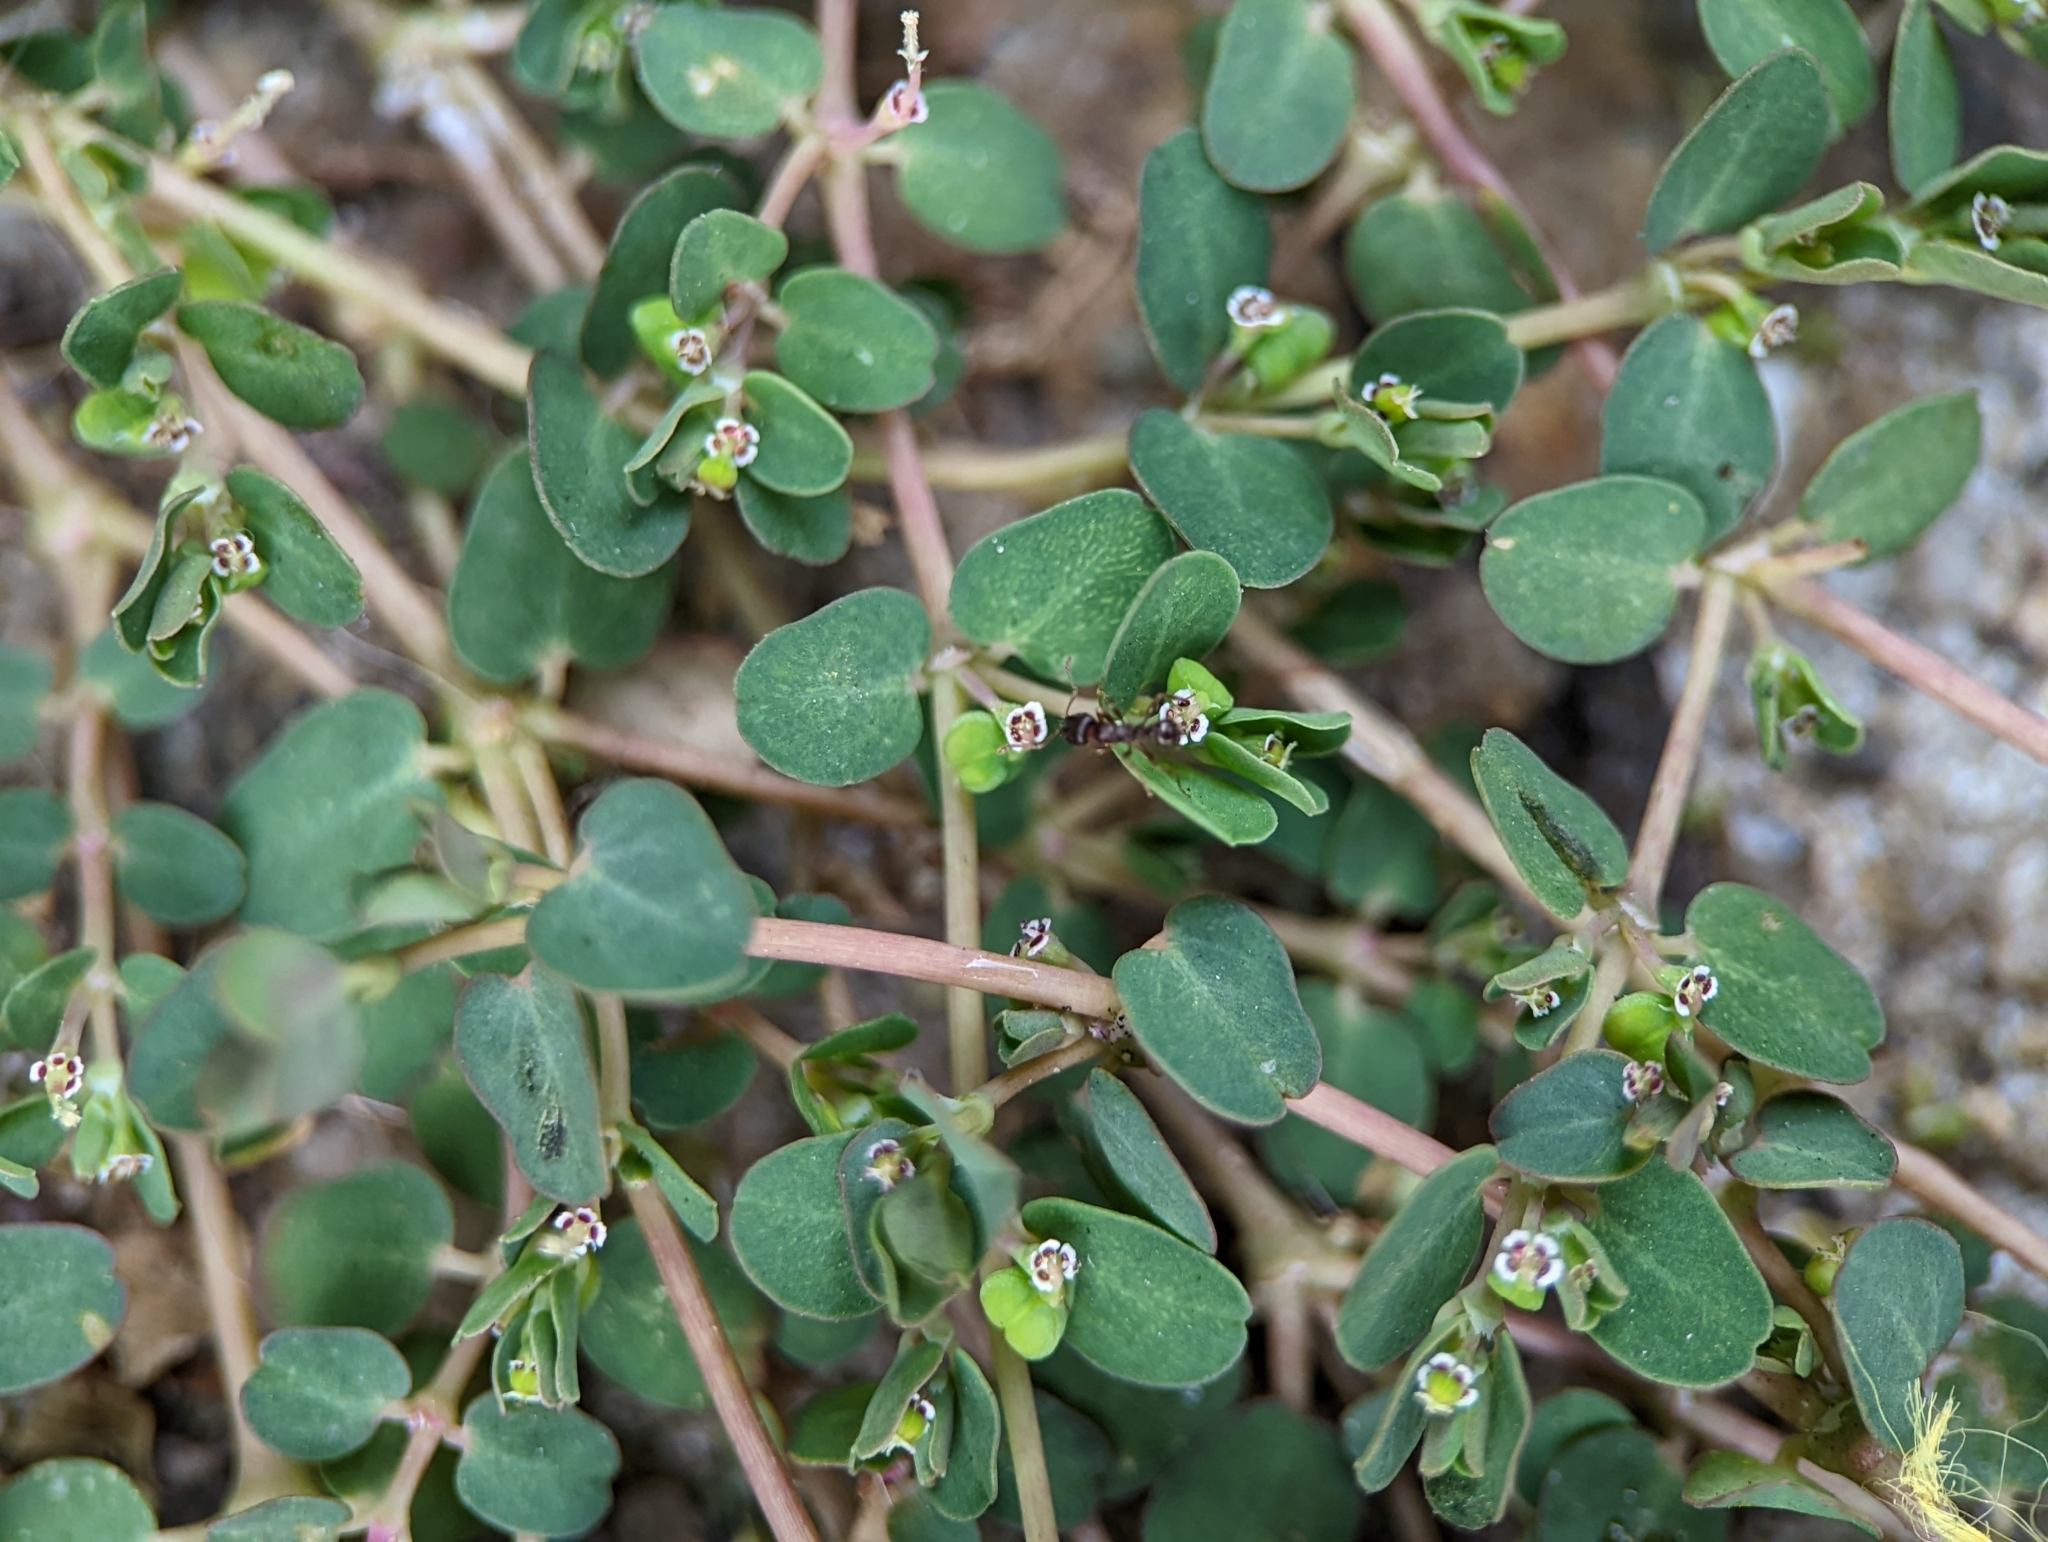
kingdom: Plantae
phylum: Tracheophyta
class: Magnoliopsida
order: Malpighiales
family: Euphorbiaceae
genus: Euphorbia
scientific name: Euphorbia serpens
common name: Matted sandmat
